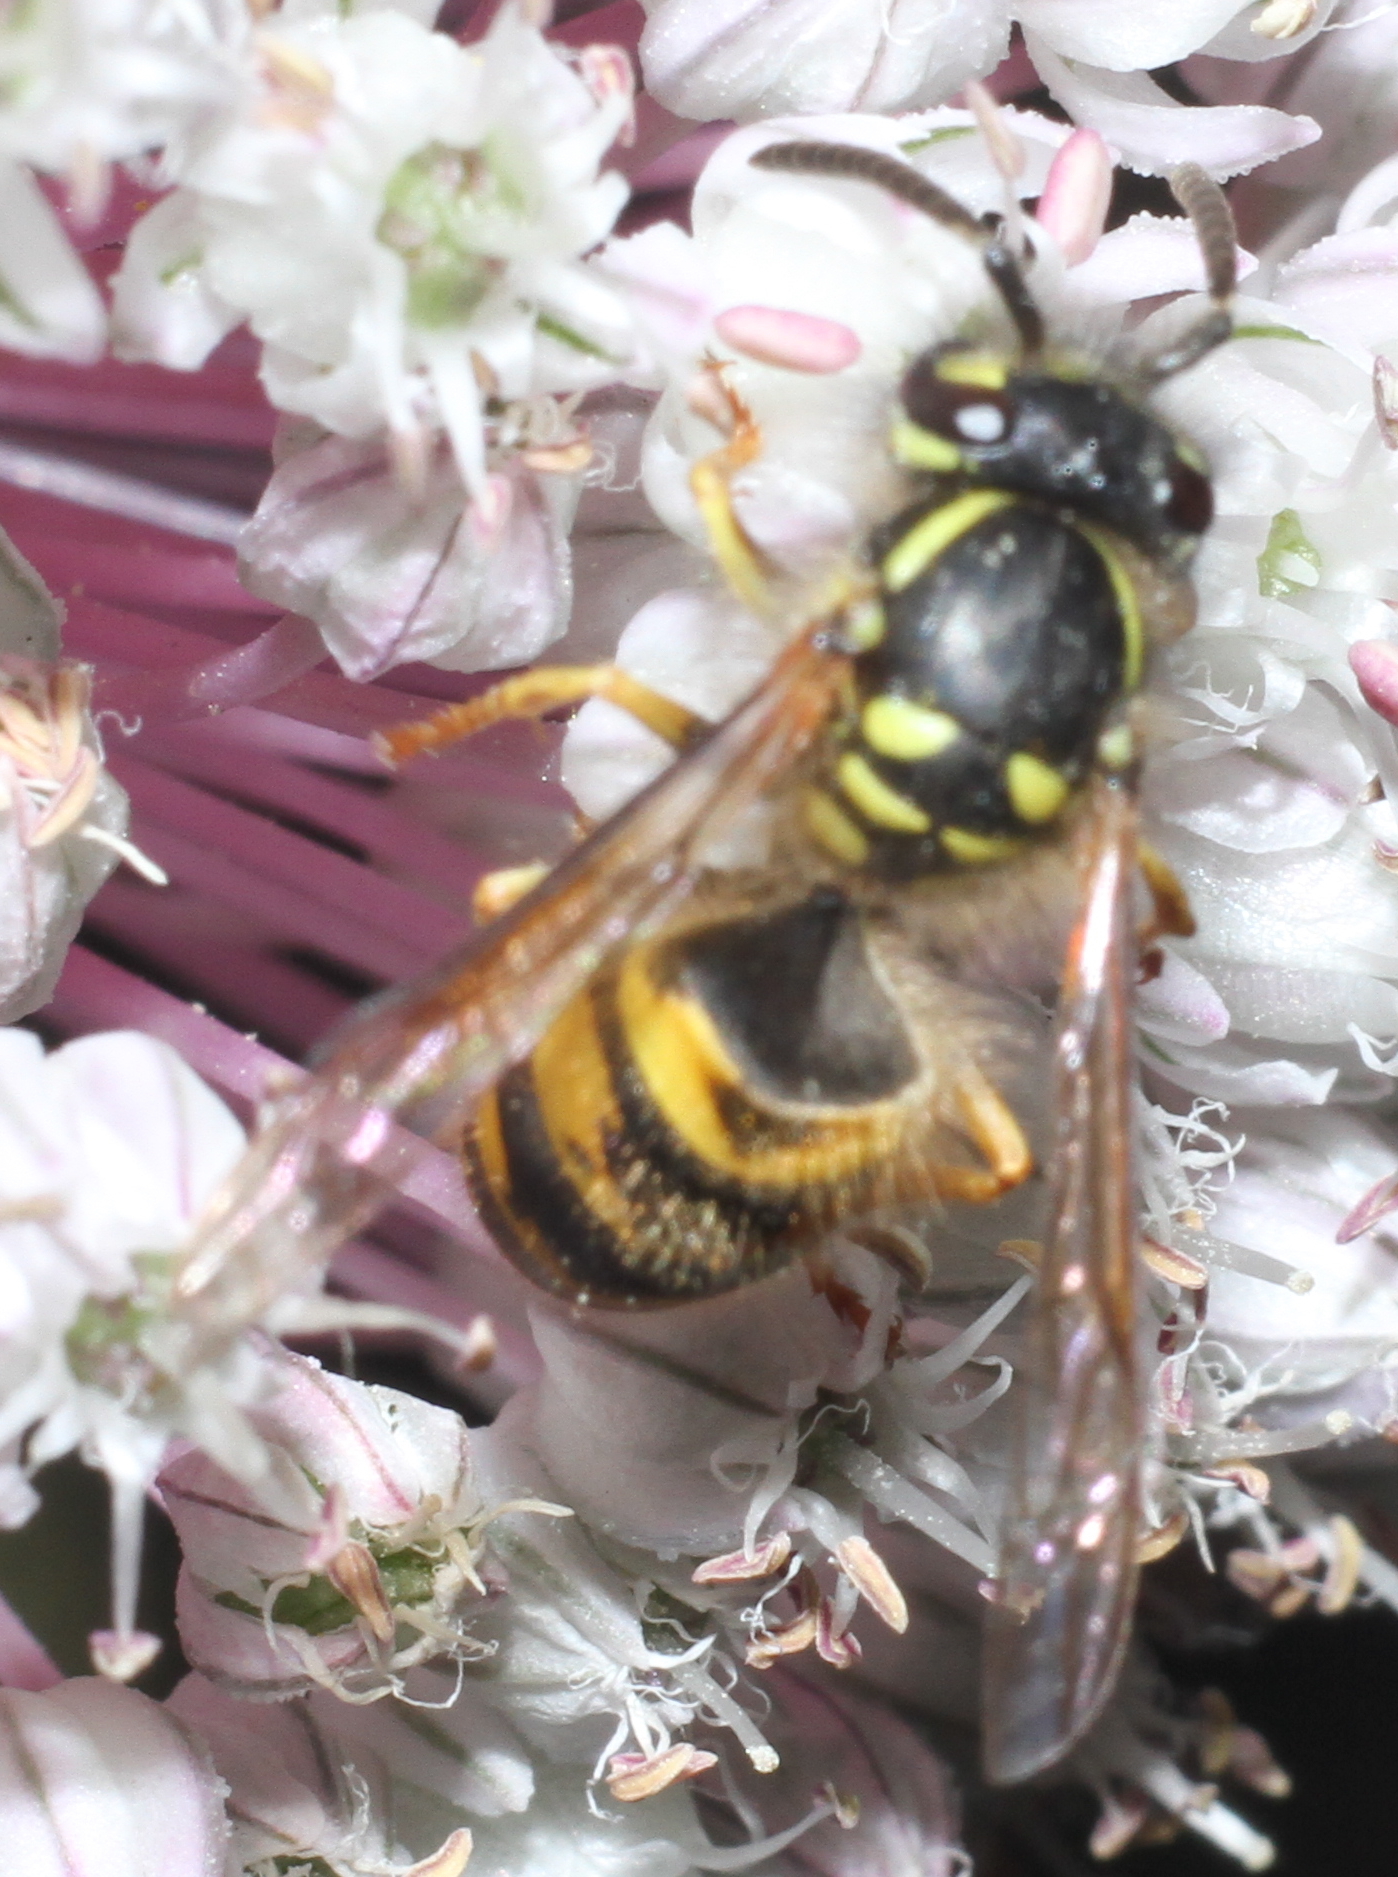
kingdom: Animalia
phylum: Arthropoda
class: Insecta
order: Hymenoptera
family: Vespidae
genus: Vespula
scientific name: Vespula vulgaris
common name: Common wasp
